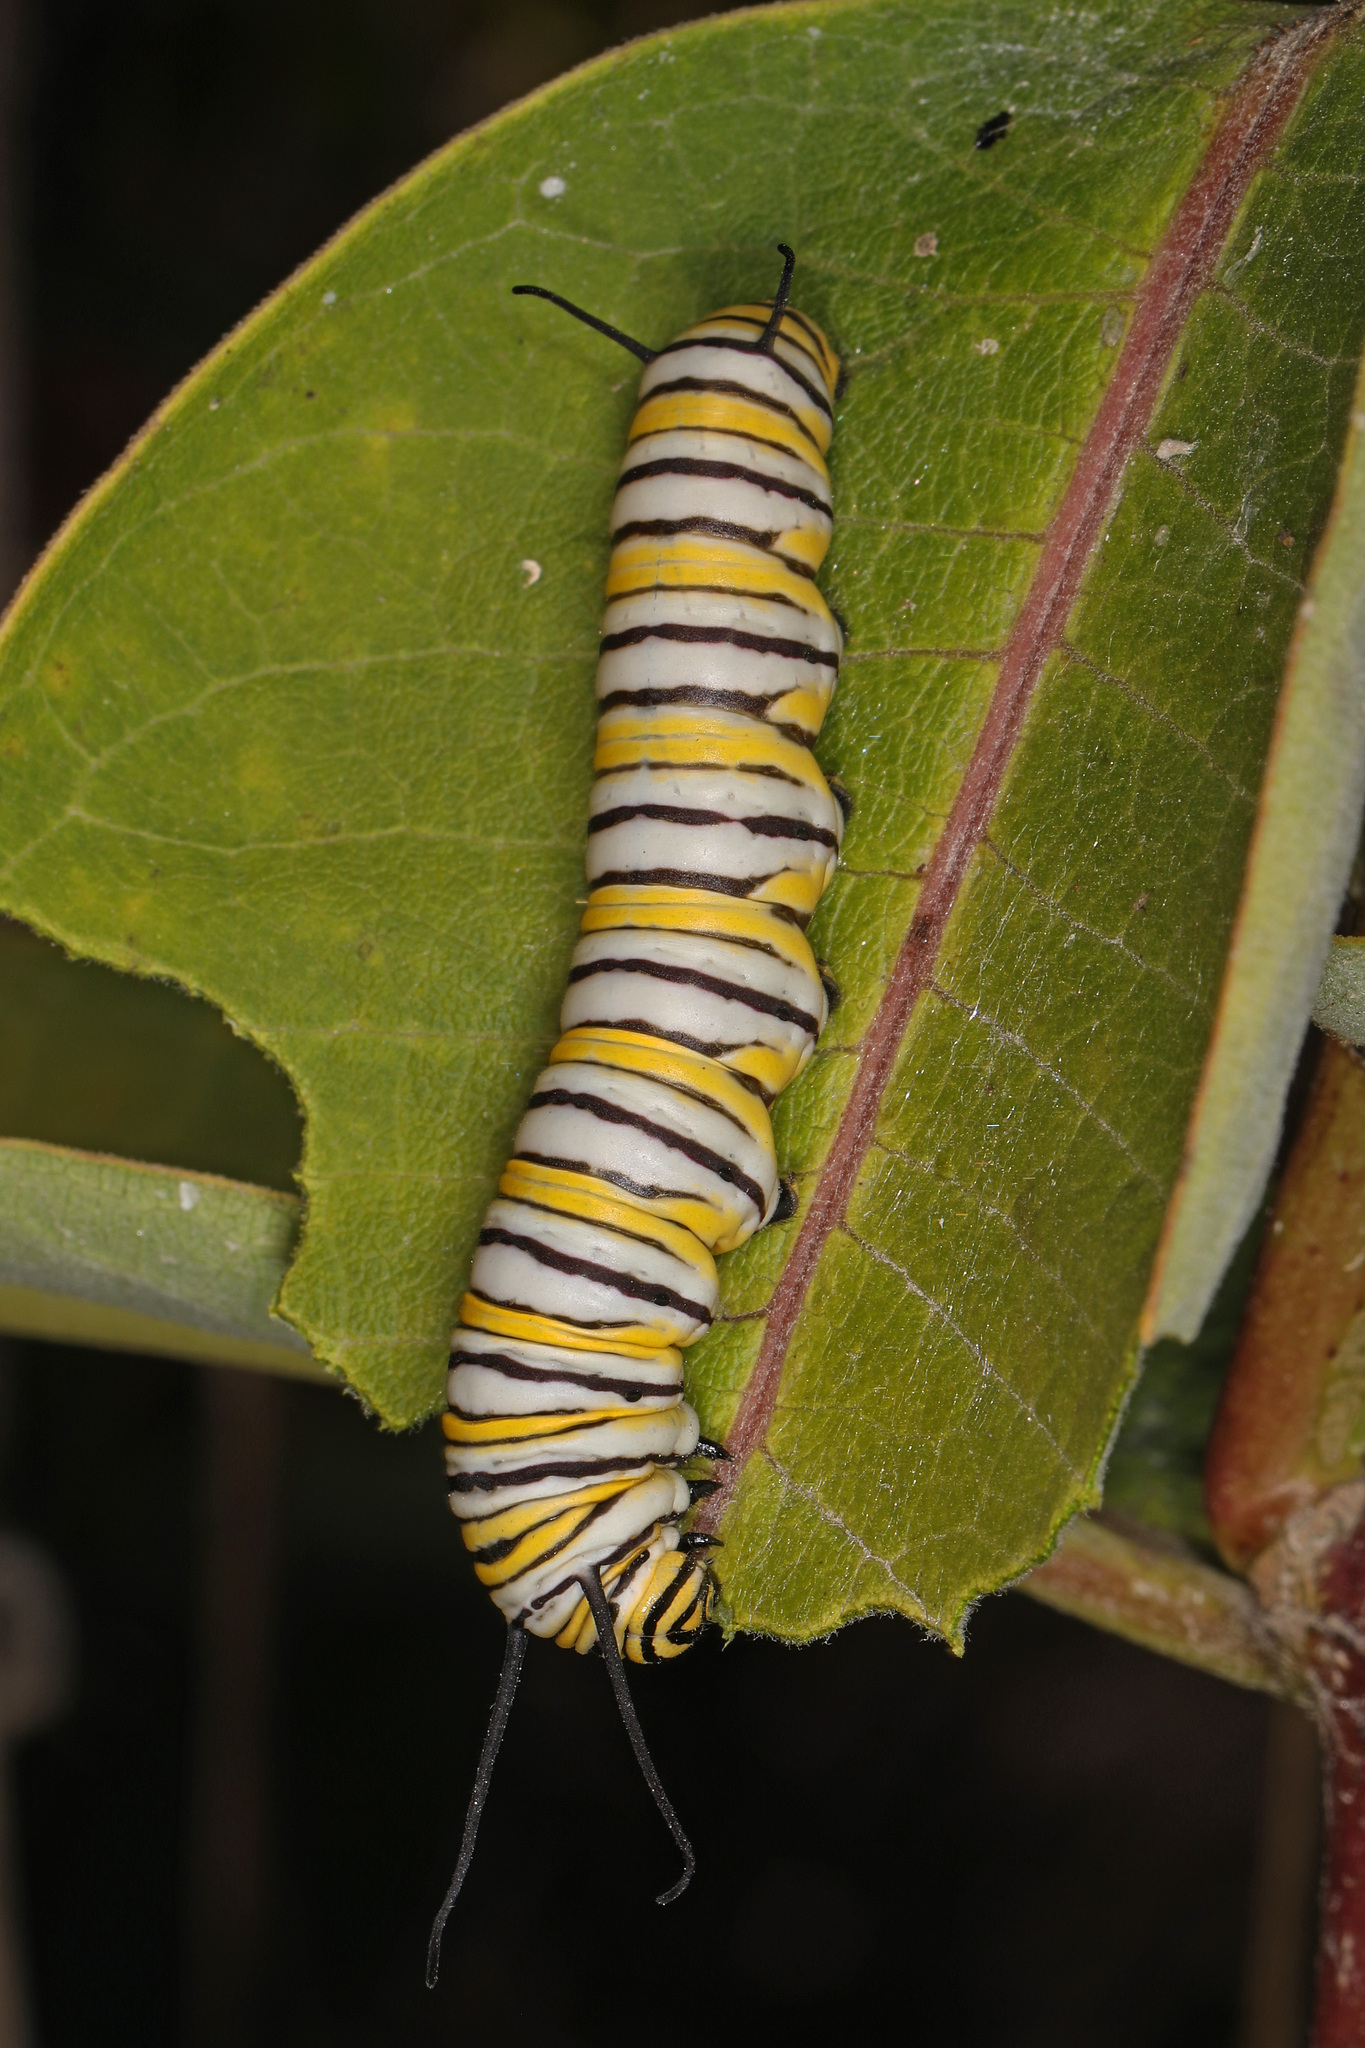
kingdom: Animalia
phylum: Arthropoda
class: Insecta
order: Lepidoptera
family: Nymphalidae
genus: Danaus
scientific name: Danaus plexippus
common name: Monarch
